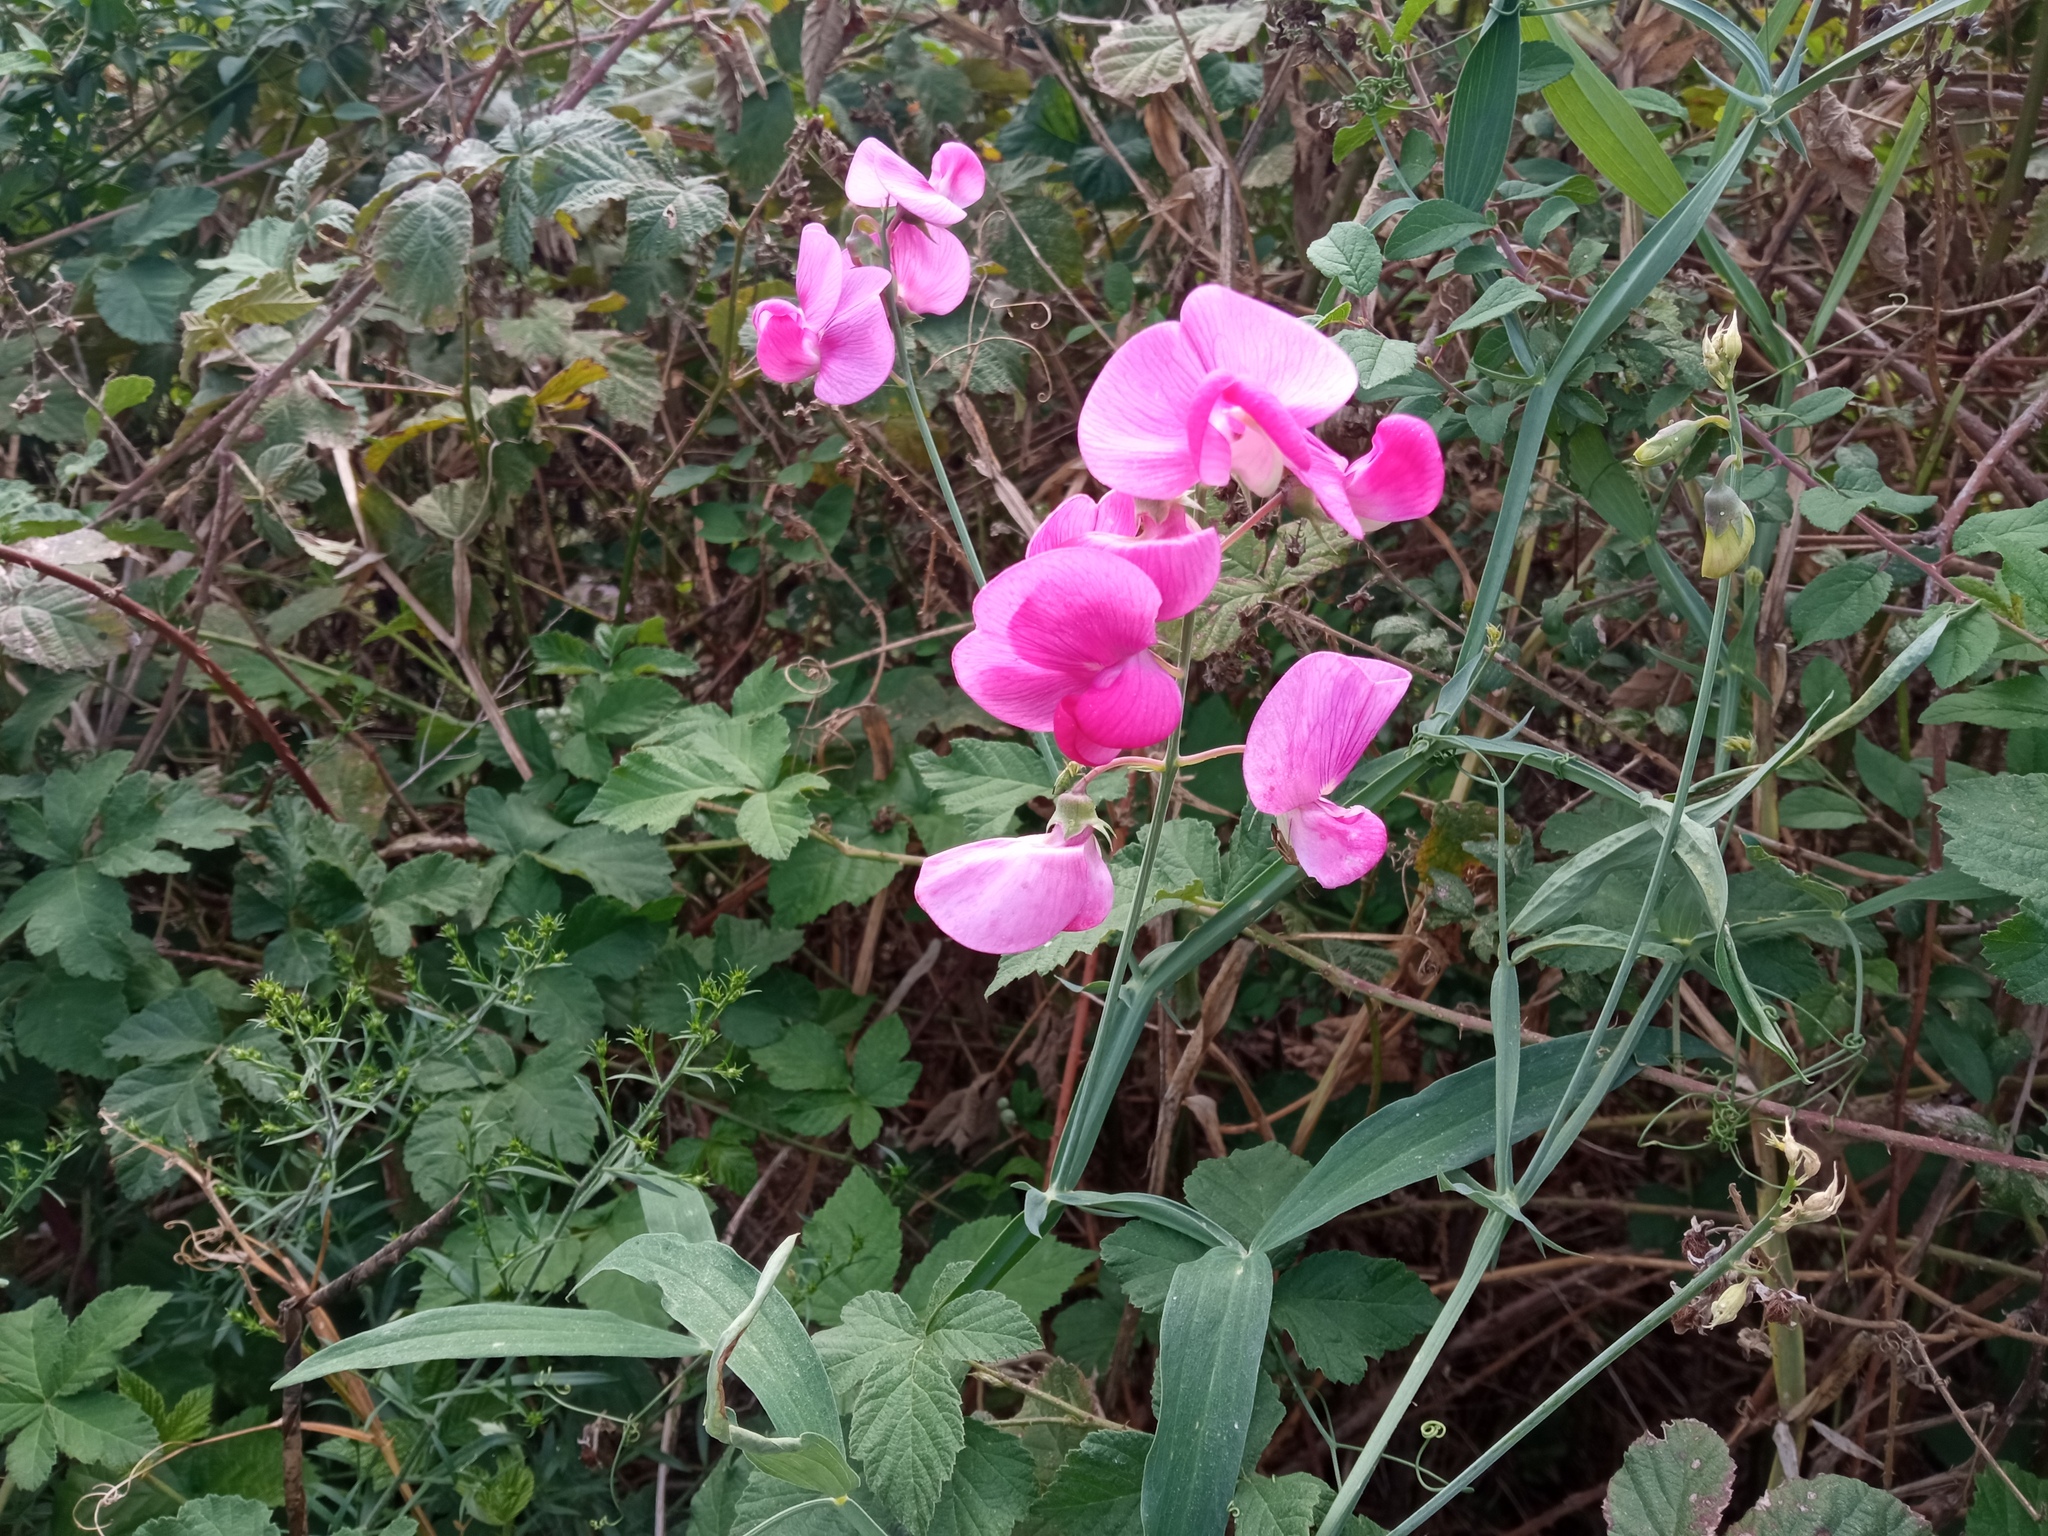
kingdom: Plantae
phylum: Tracheophyta
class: Magnoliopsida
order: Fabales
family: Fabaceae
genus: Lathyrus
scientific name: Lathyrus latifolius
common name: Perennial pea
